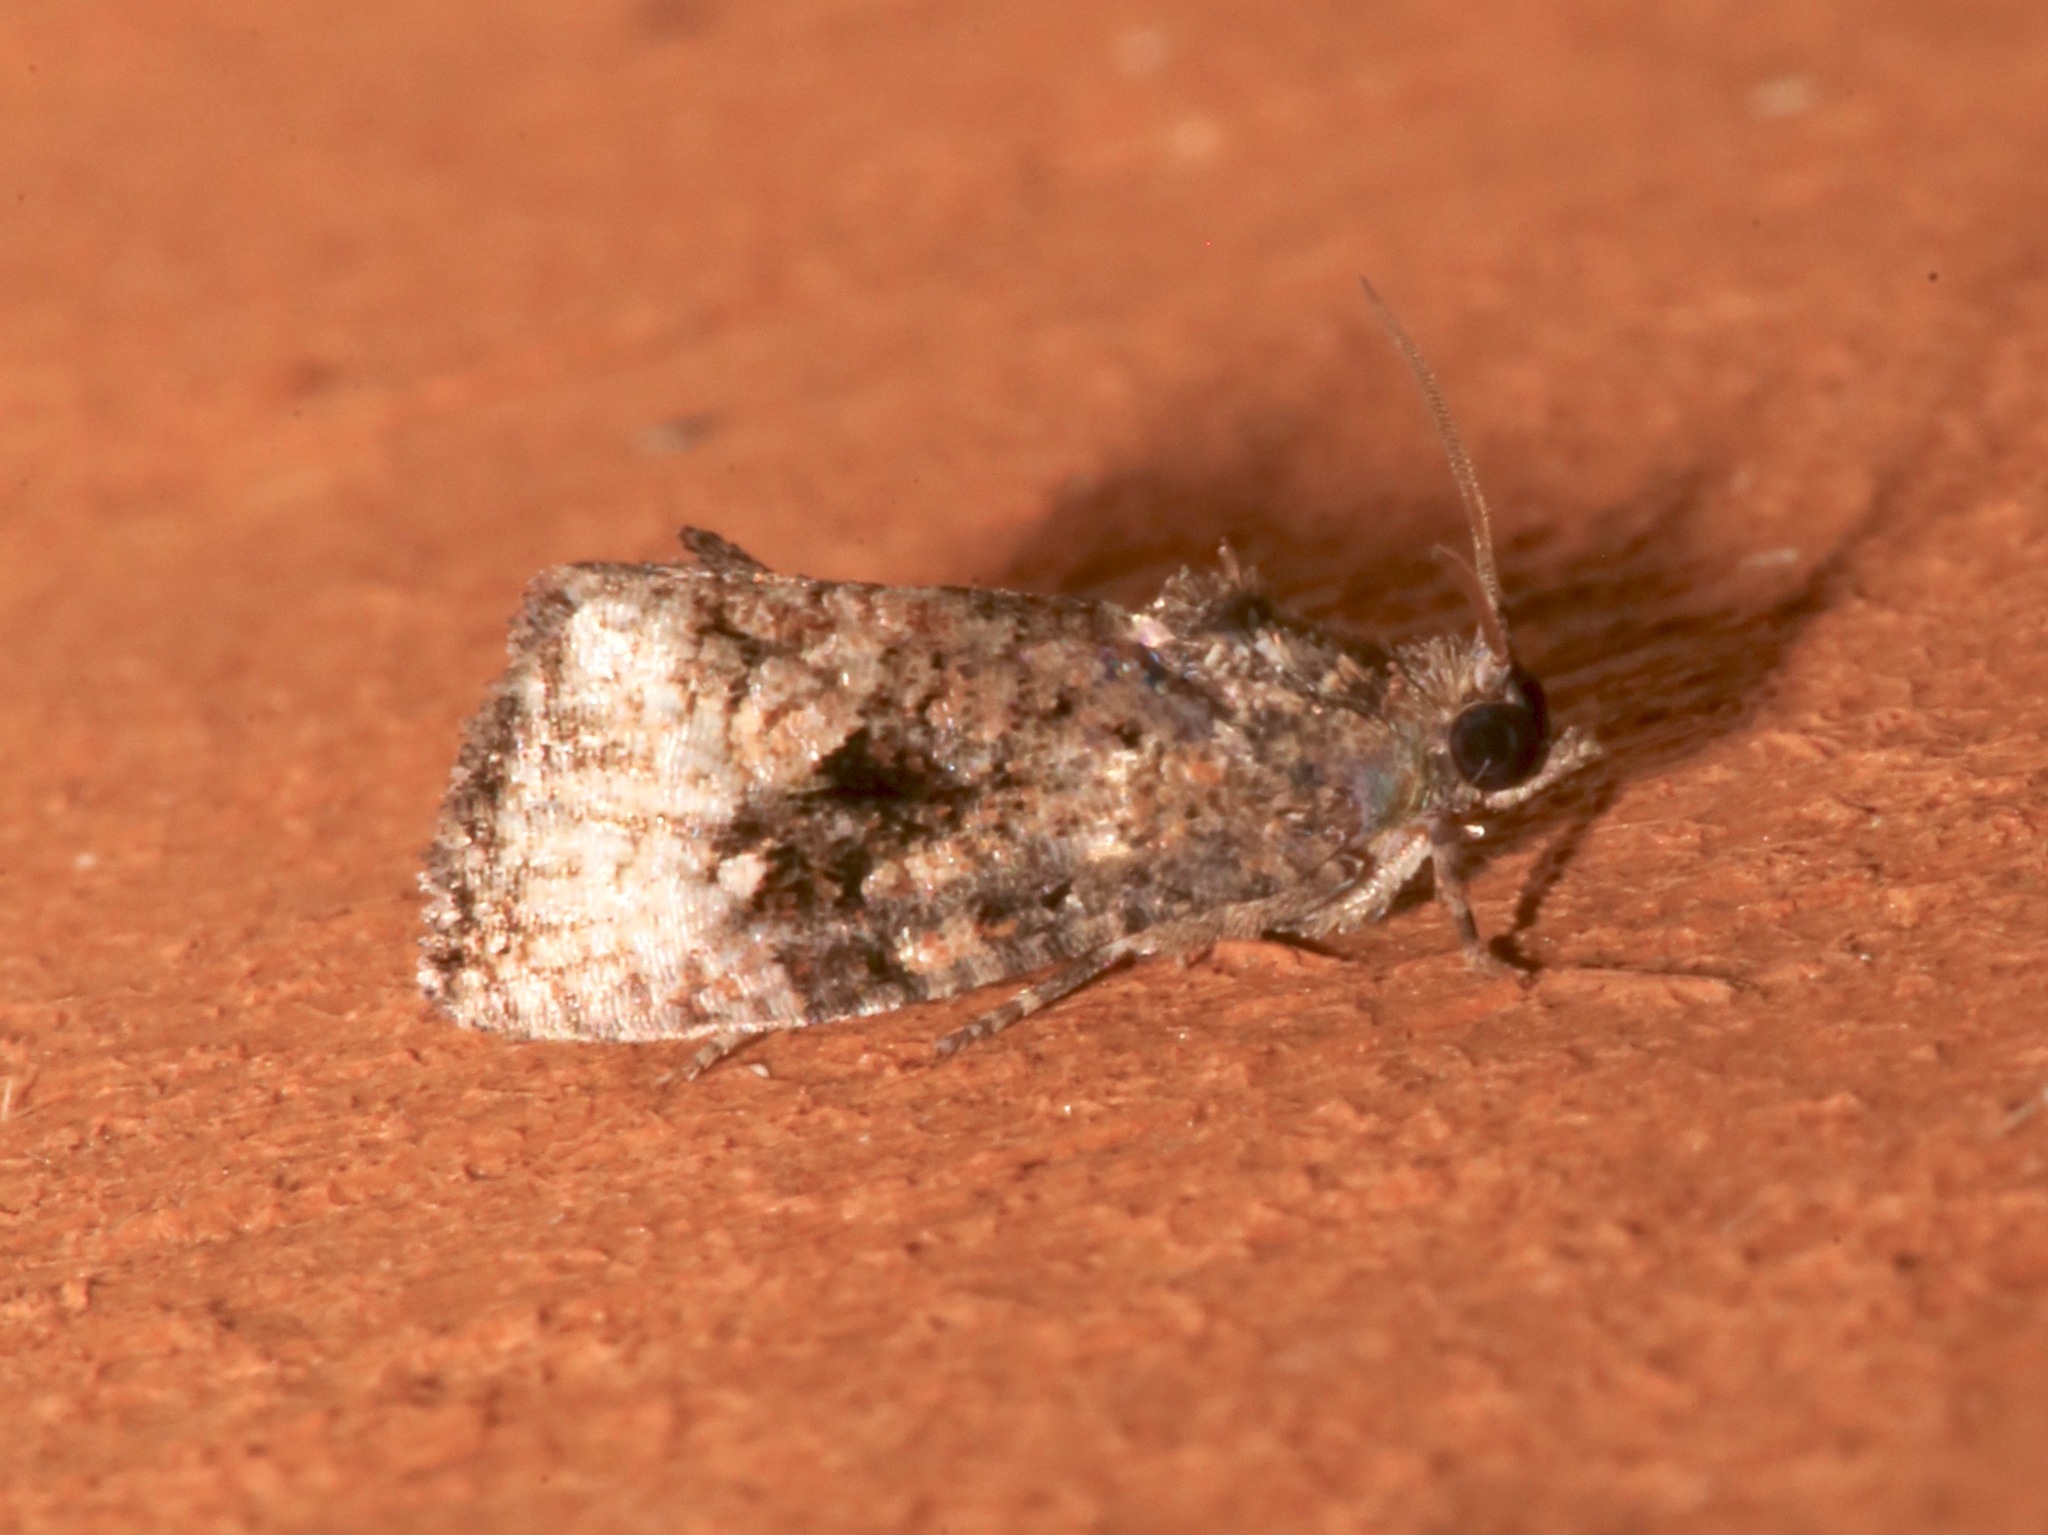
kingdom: Animalia
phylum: Arthropoda
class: Insecta
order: Lepidoptera
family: Tortricidae
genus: Gymnandrosoma
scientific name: Gymnandrosoma punctidiscanum
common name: Dotted ecdytolopha moth
